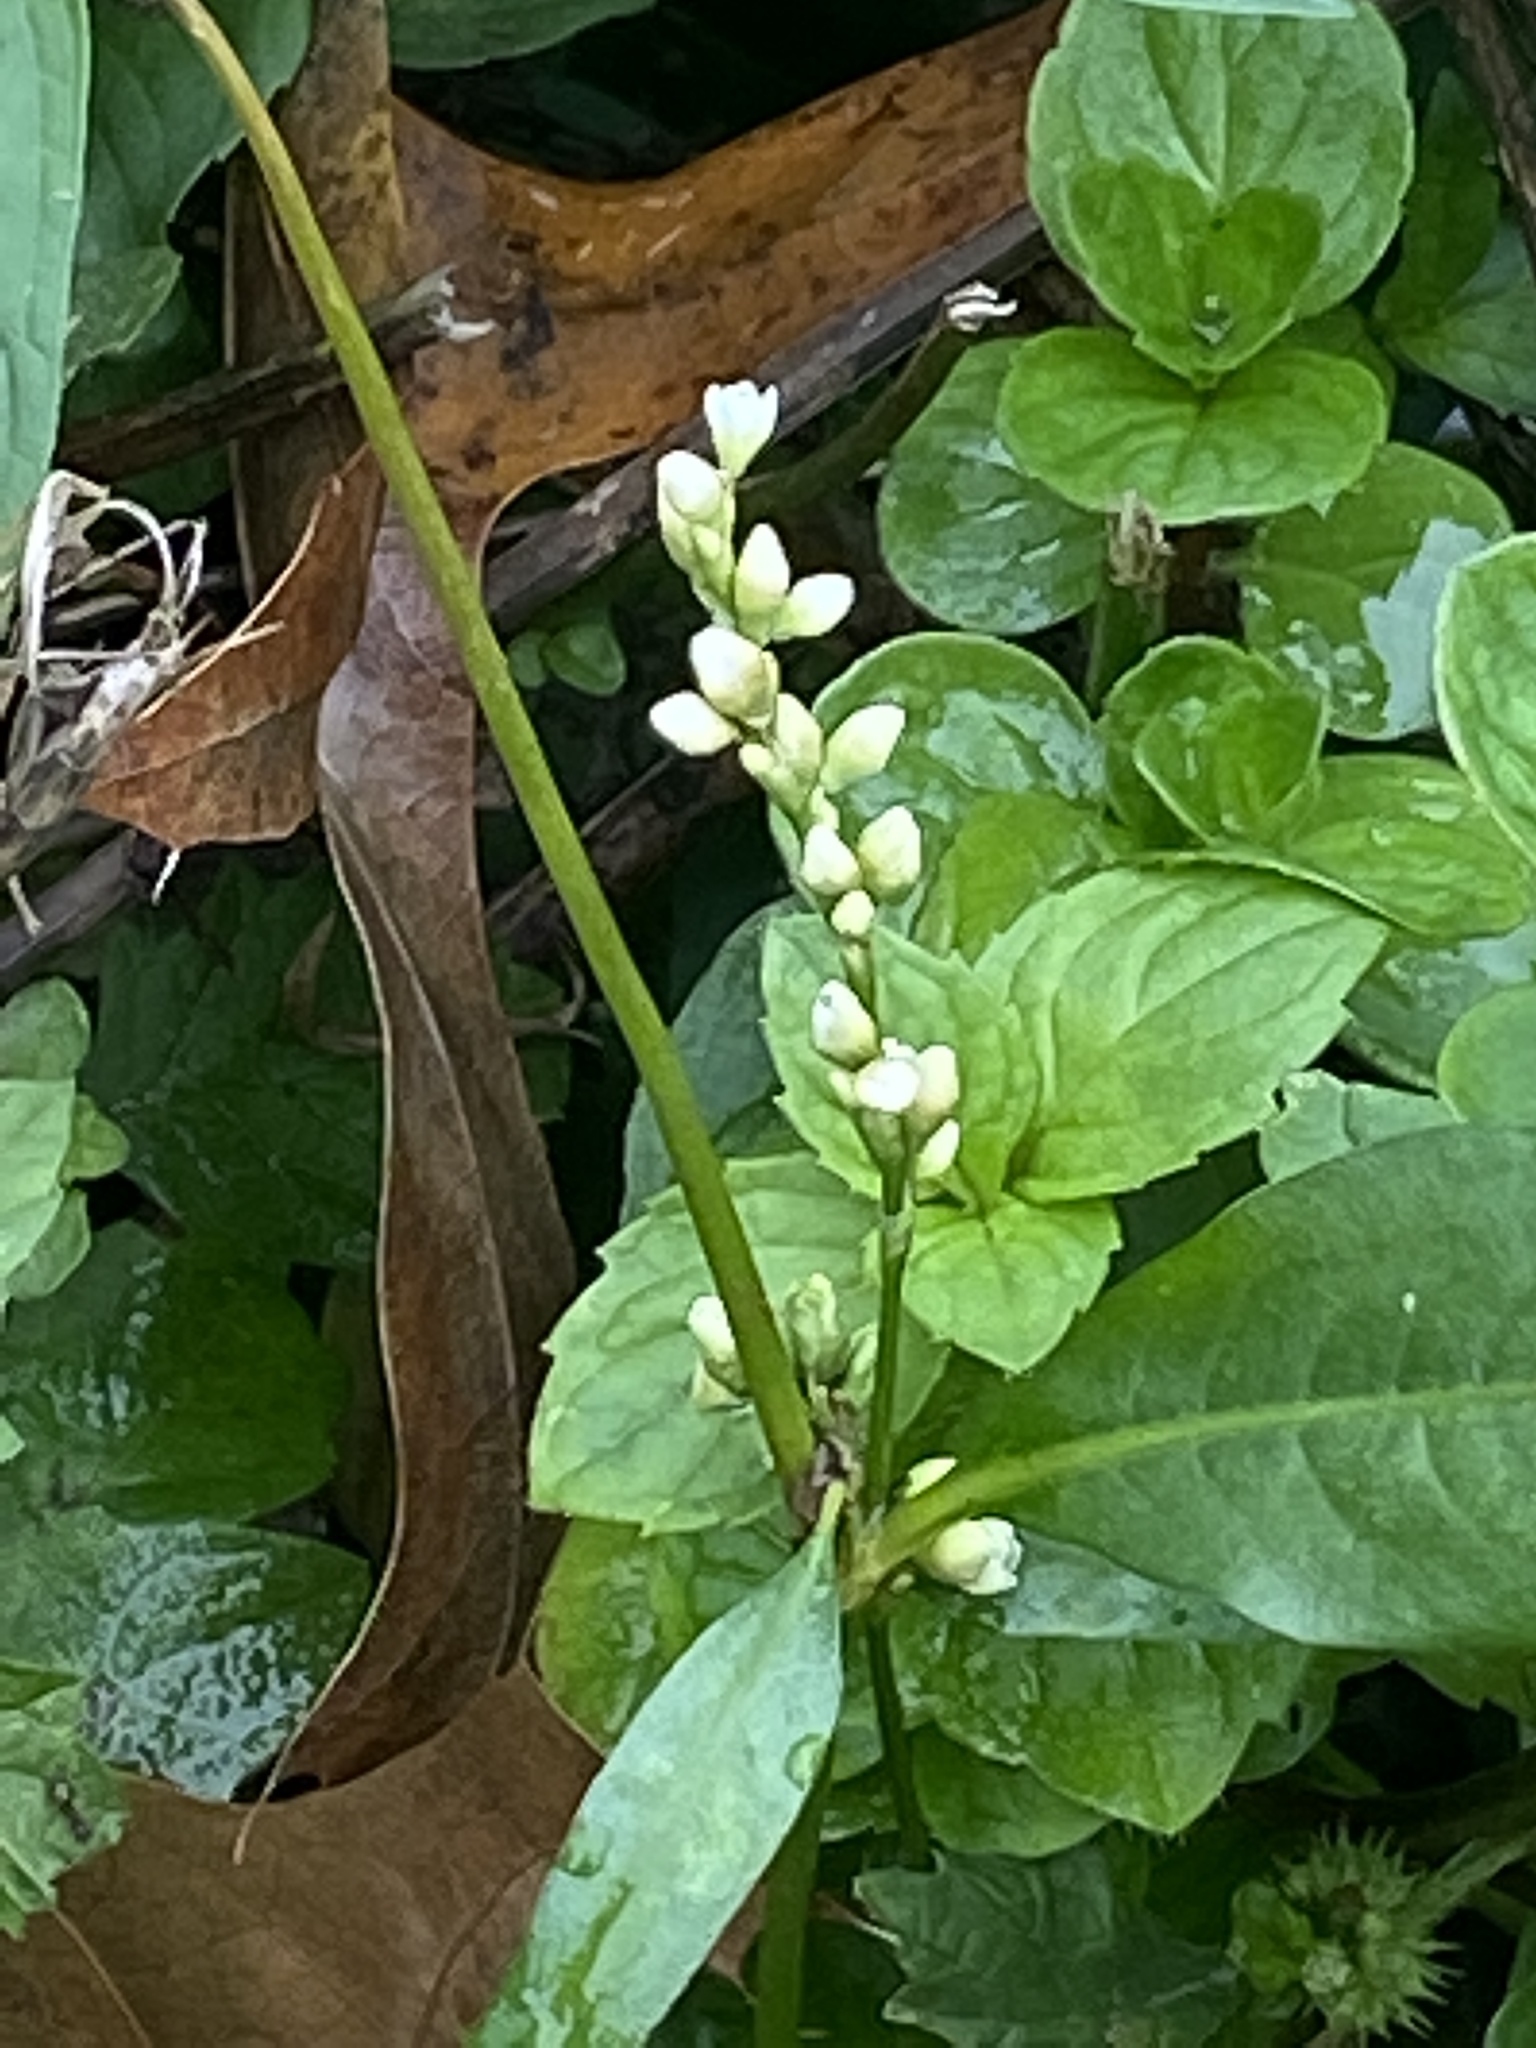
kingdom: Plantae
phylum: Tracheophyta
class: Magnoliopsida
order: Caryophyllales
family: Polygonaceae
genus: Persicaria
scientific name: Persicaria punctata
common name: Dotted smartweed
